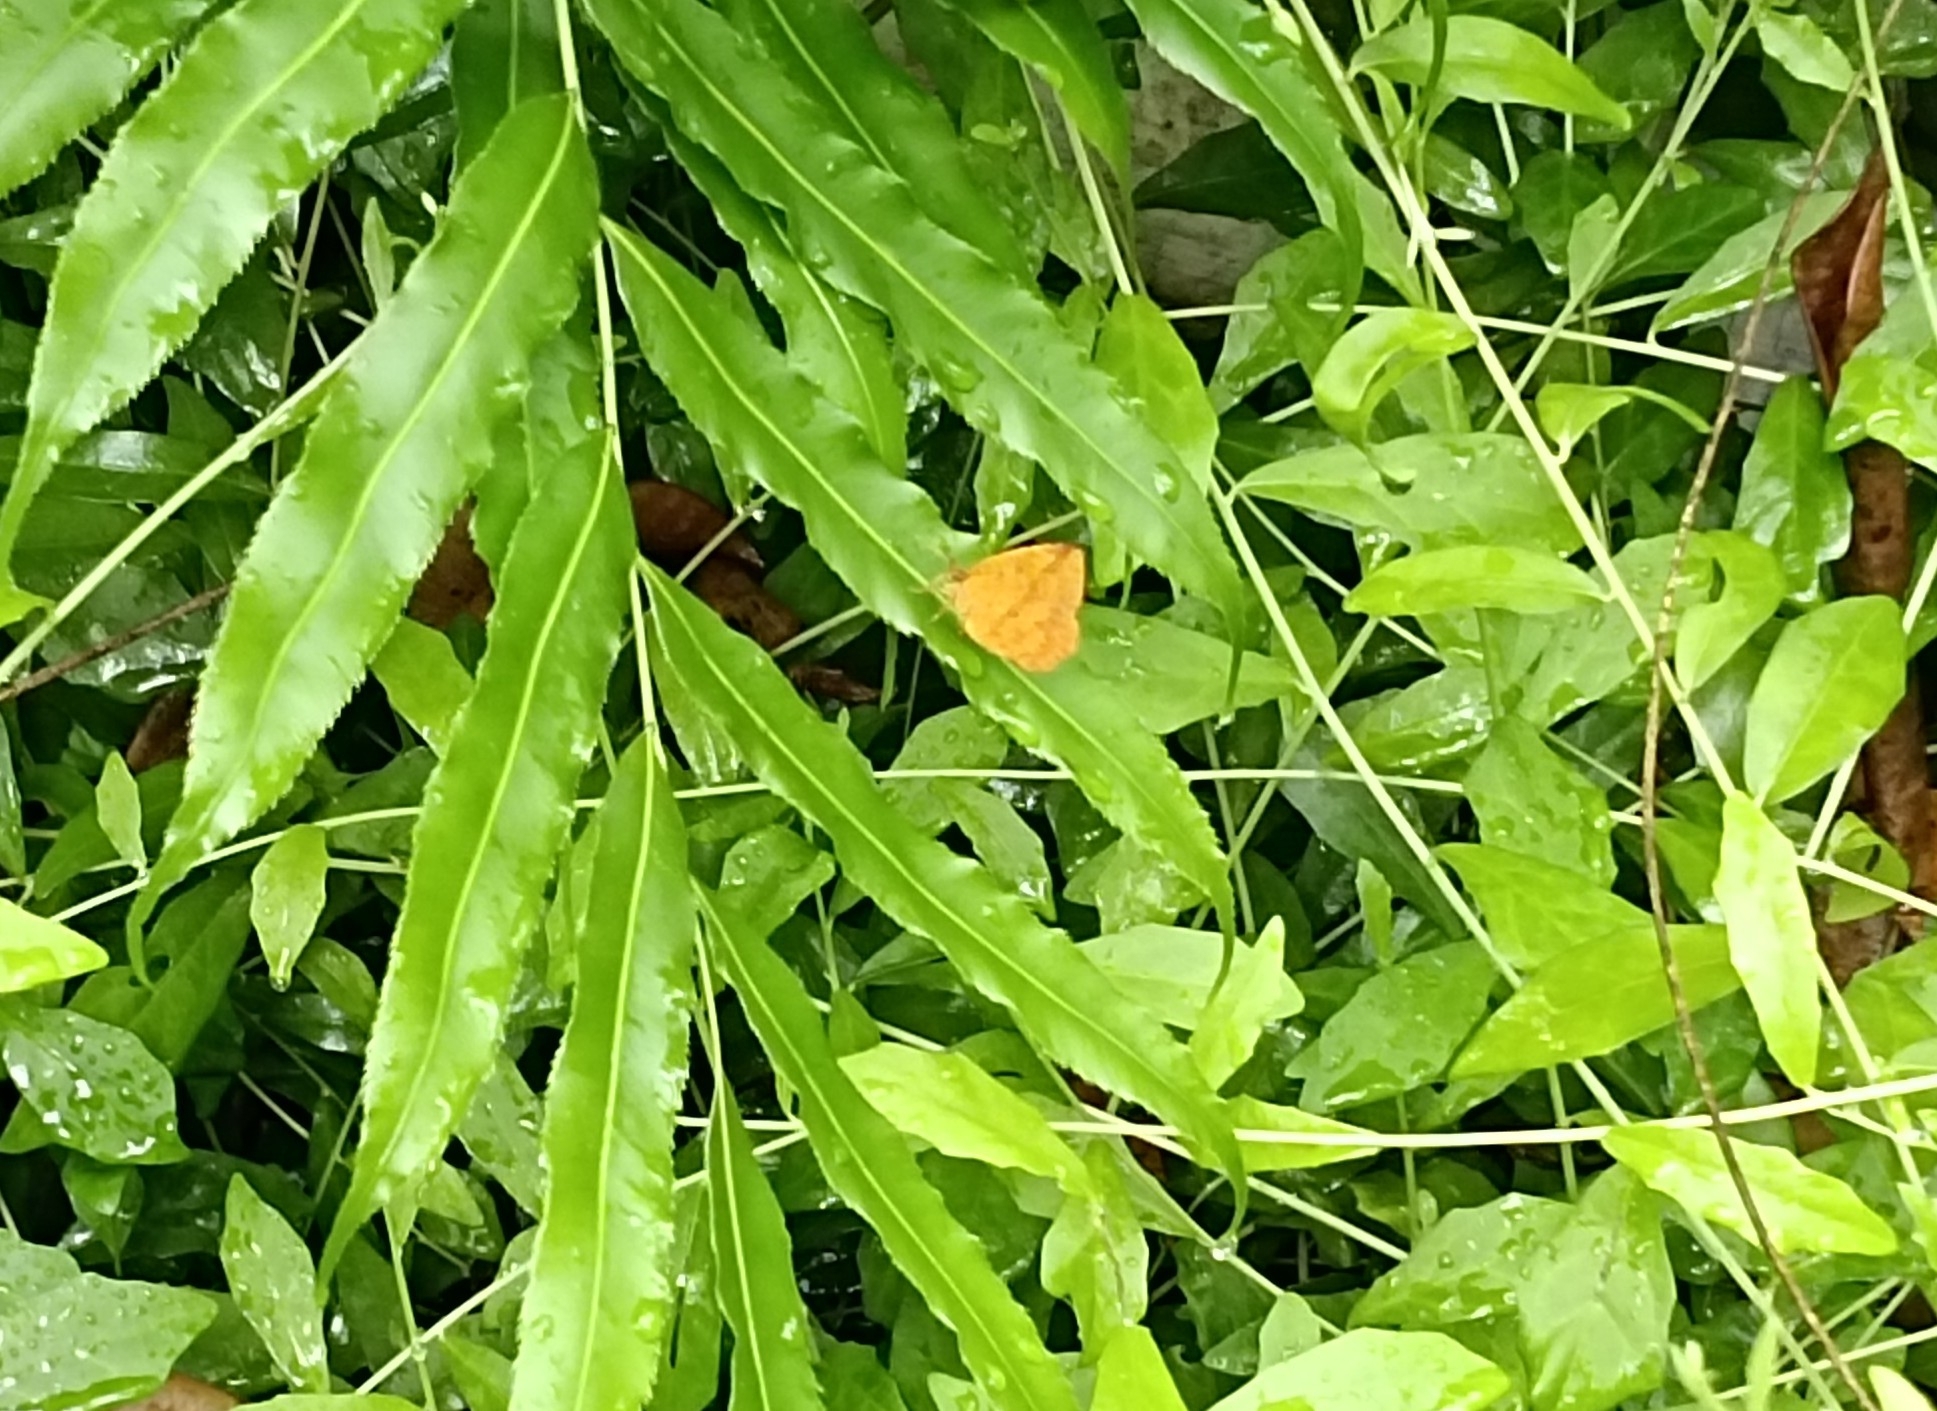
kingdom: Animalia
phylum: Arthropoda
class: Insecta
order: Lepidoptera
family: Callidulidae
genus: Tetragonus
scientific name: Tetragonus catamitus
